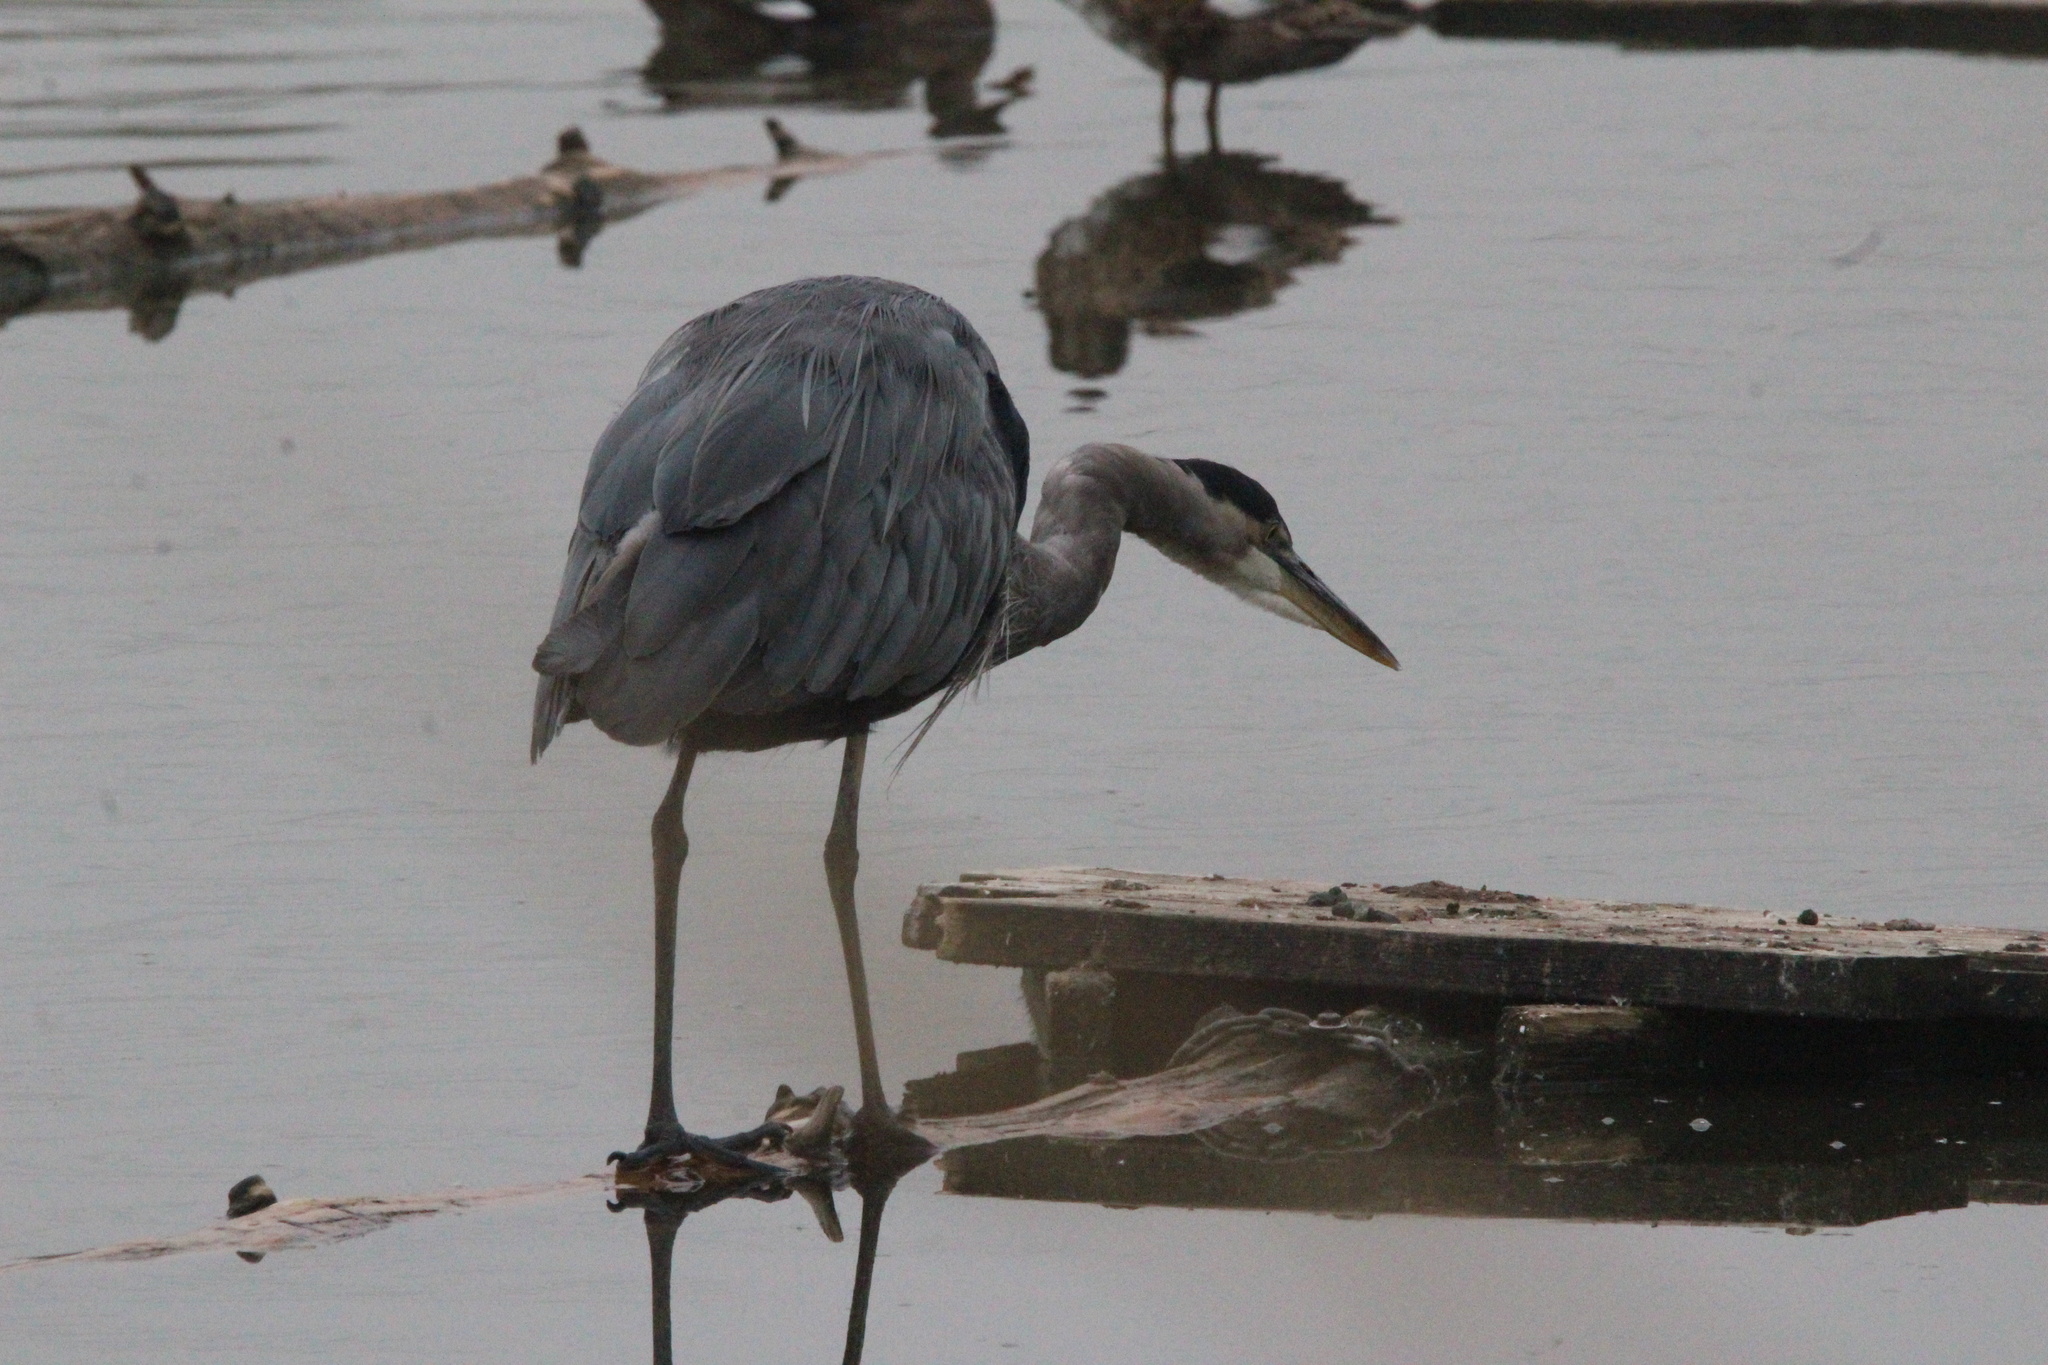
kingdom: Animalia
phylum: Chordata
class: Aves
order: Pelecaniformes
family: Ardeidae
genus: Ardea
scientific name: Ardea herodias
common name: Great blue heron
